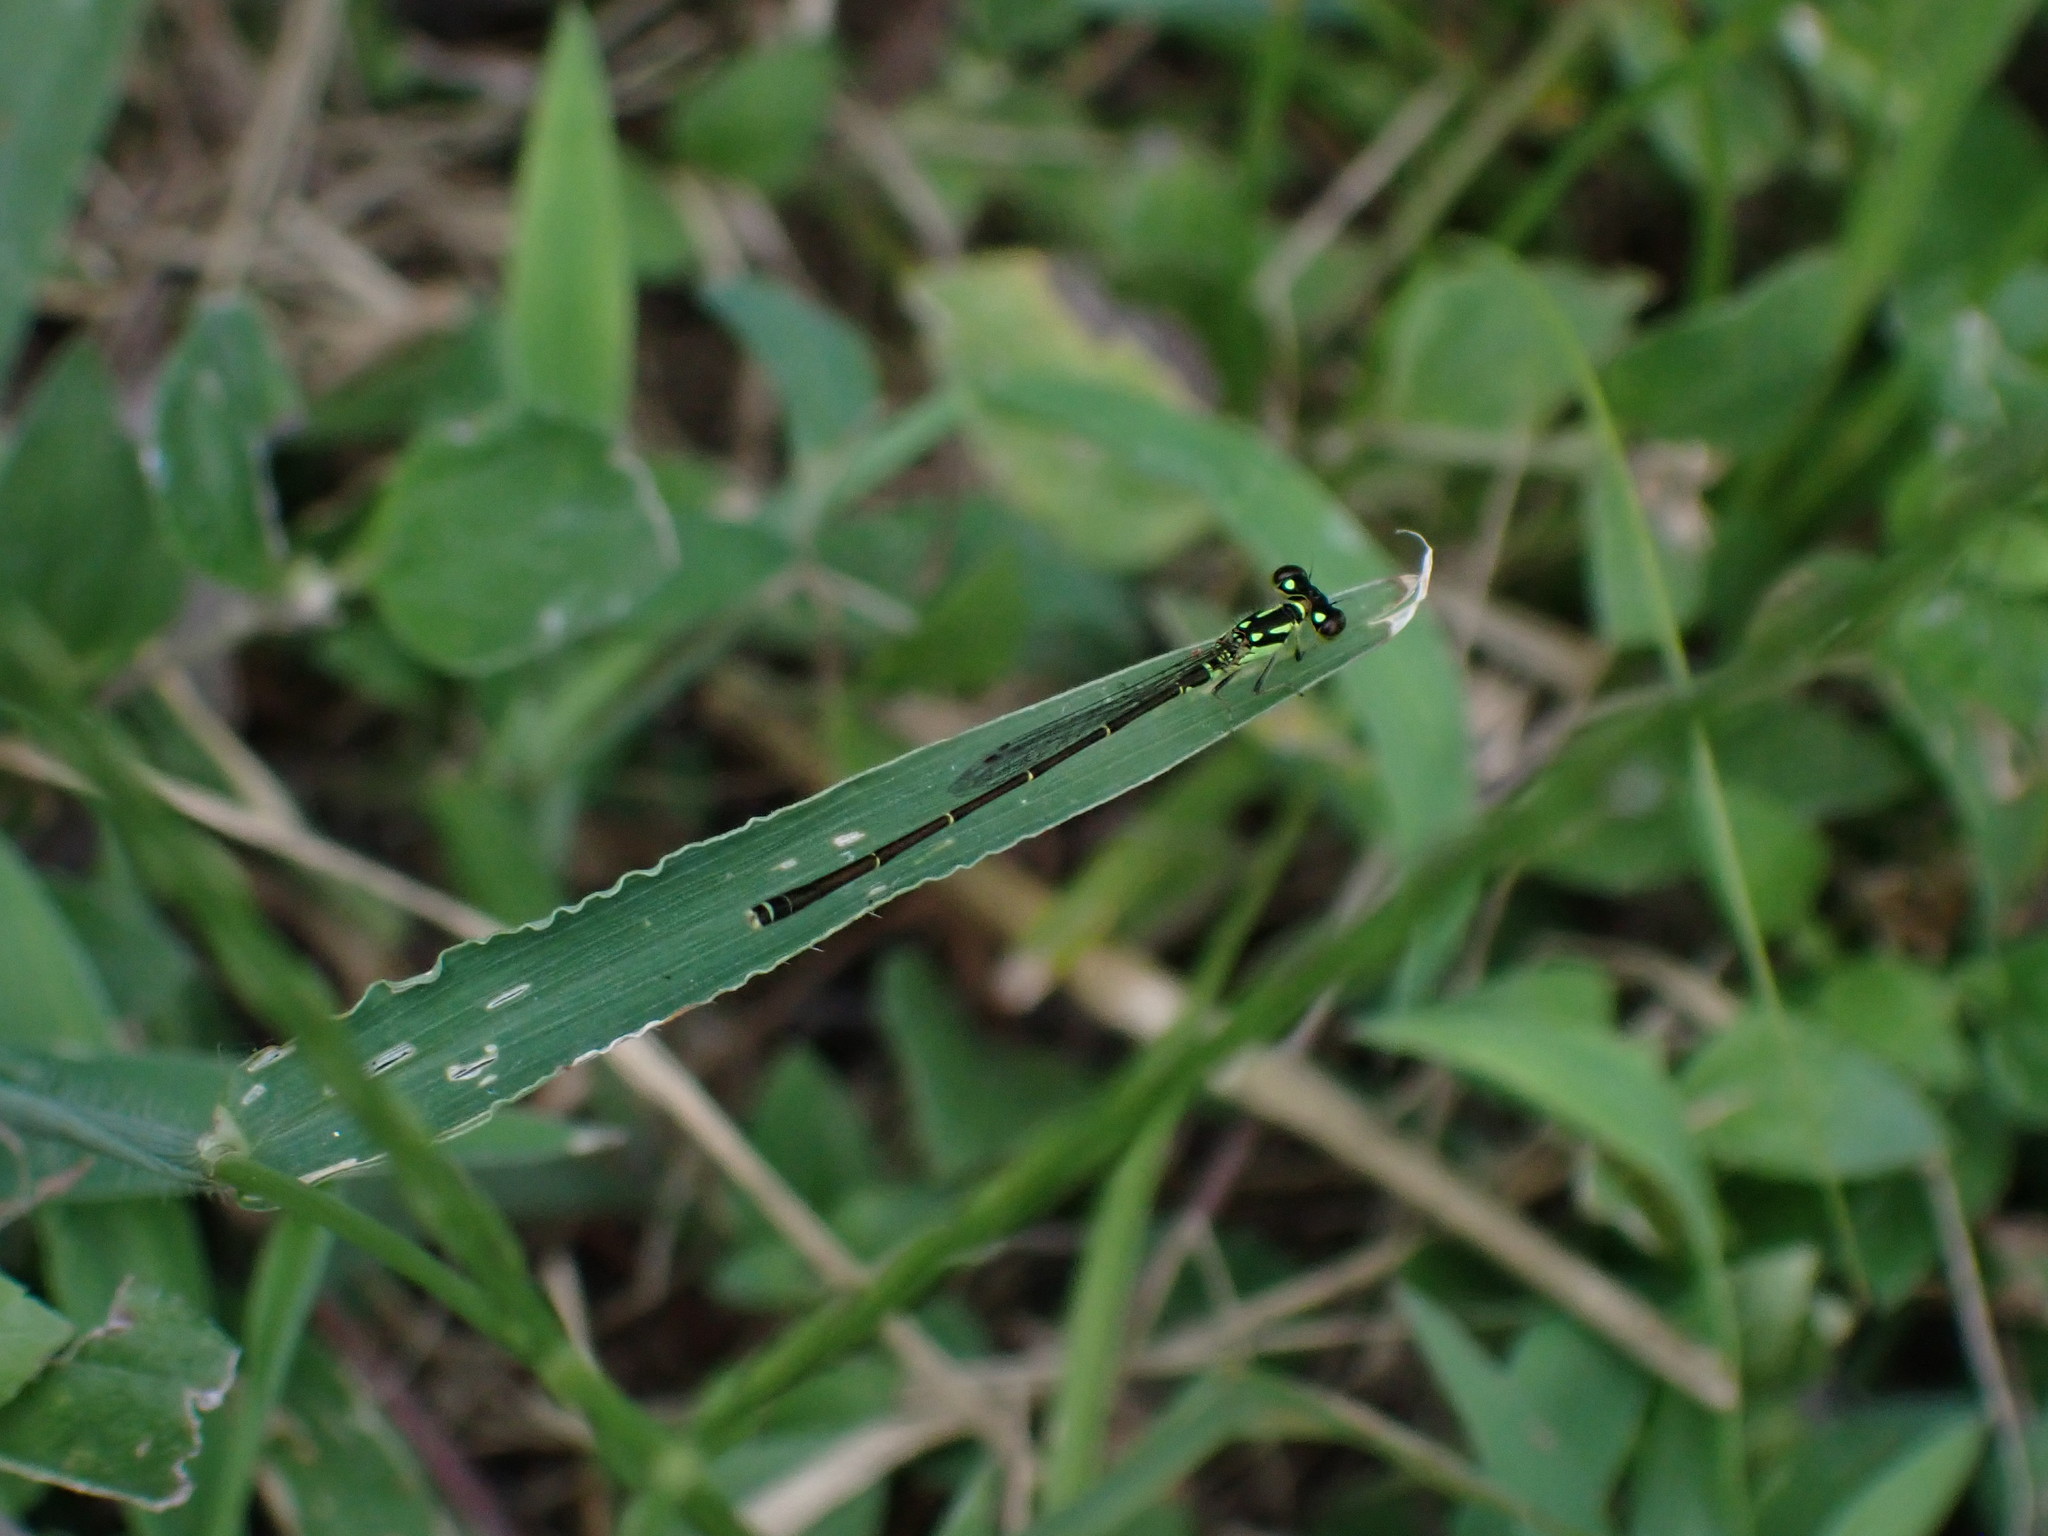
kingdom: Animalia
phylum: Arthropoda
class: Insecta
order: Odonata
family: Coenagrionidae
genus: Ischnura
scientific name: Ischnura posita
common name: Fragile forktail
